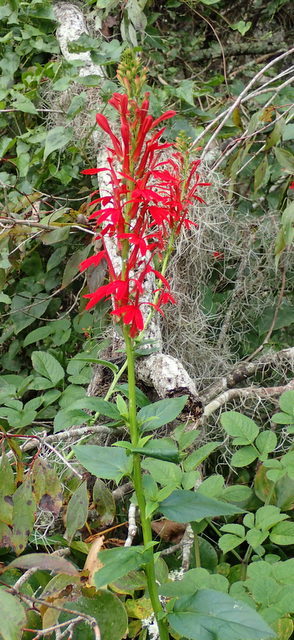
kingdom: Plantae
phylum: Tracheophyta
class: Magnoliopsida
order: Asterales
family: Campanulaceae
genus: Lobelia
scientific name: Lobelia cardinalis
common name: Cardinal flower
